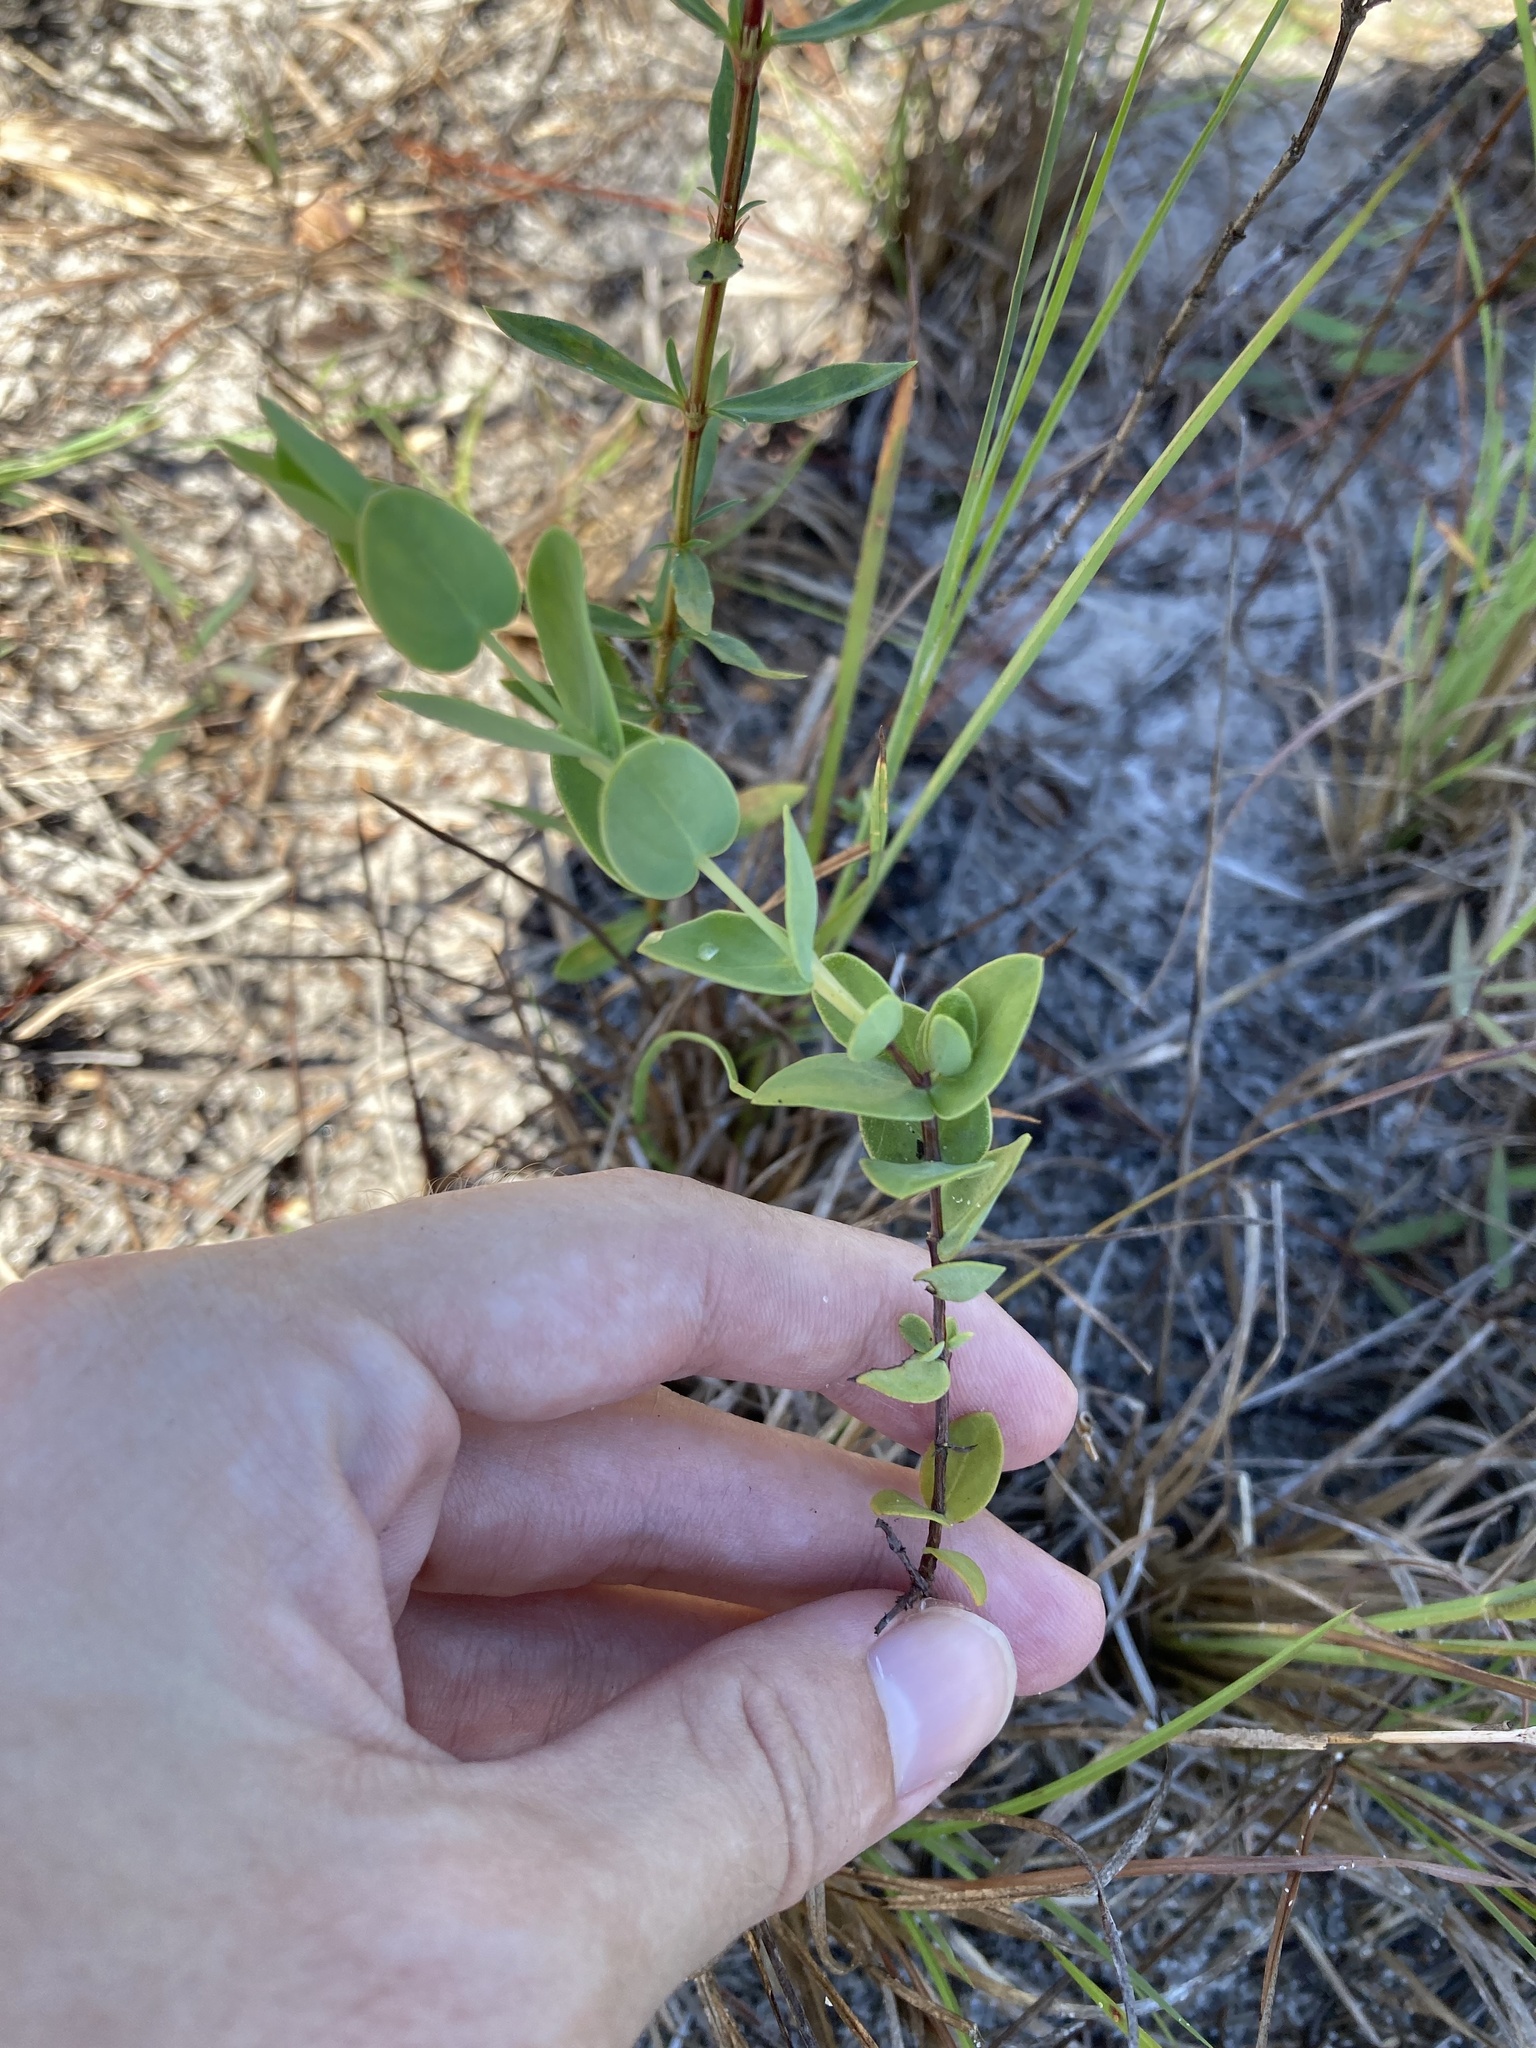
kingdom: Plantae
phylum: Tracheophyta
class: Magnoliopsida
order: Malpighiales
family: Hypericaceae
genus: Hypericum
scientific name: Hypericum tetrapetalum
